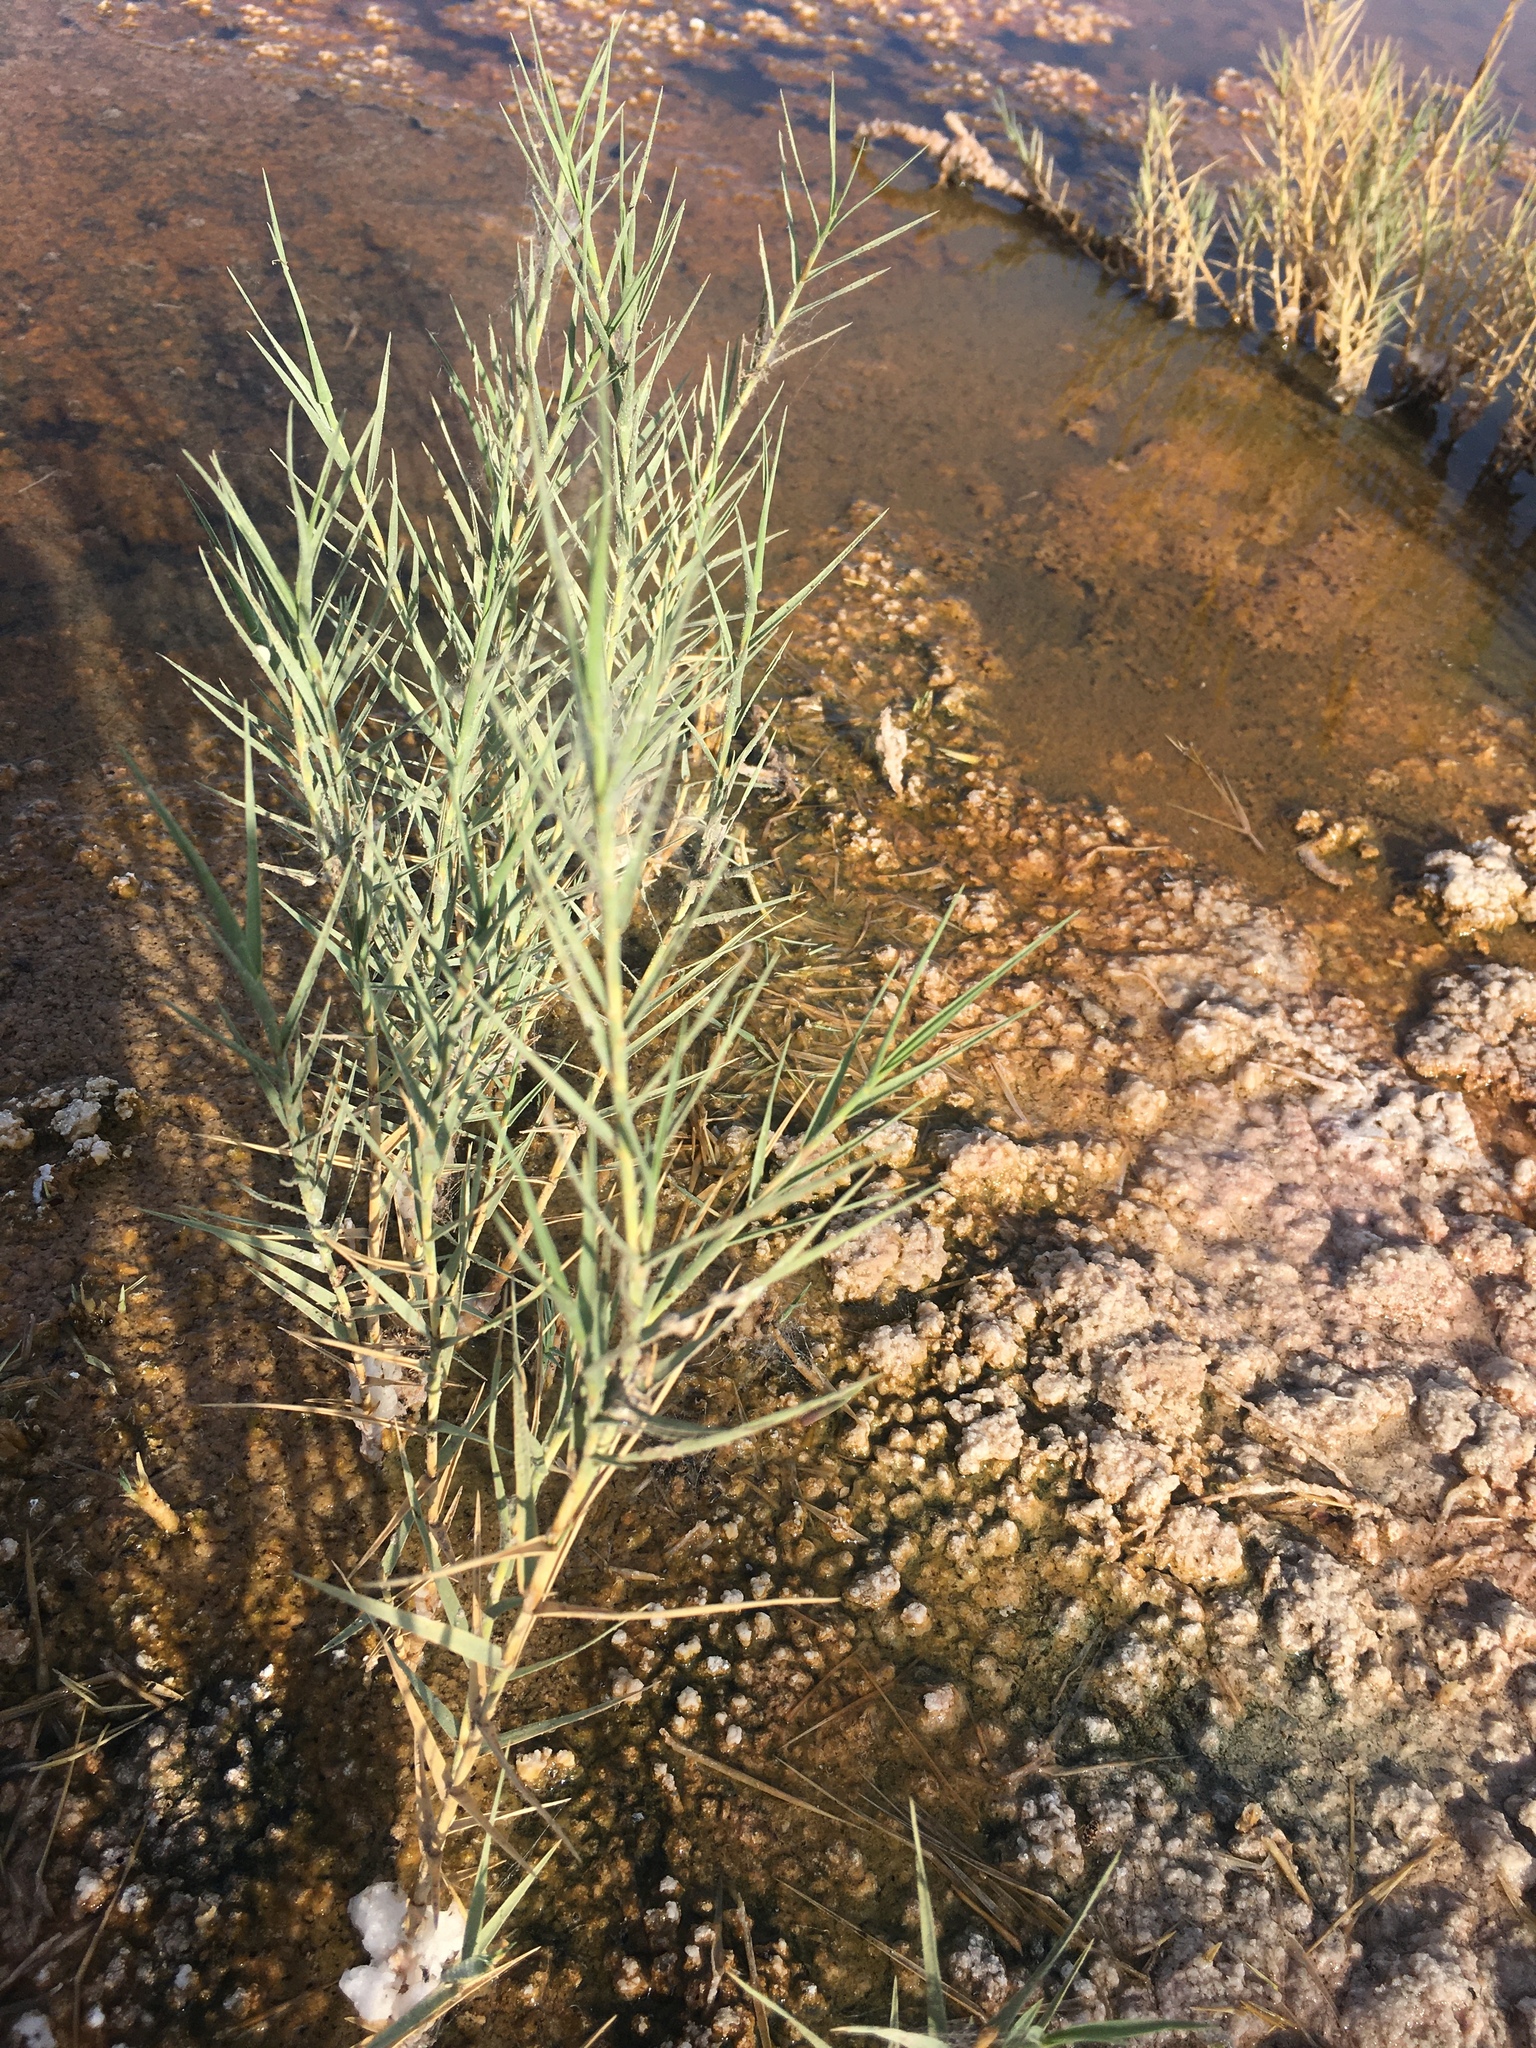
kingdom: Plantae
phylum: Tracheophyta
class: Liliopsida
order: Poales
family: Poaceae
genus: Distichlis
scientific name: Distichlis spicata
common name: Saltgrass
